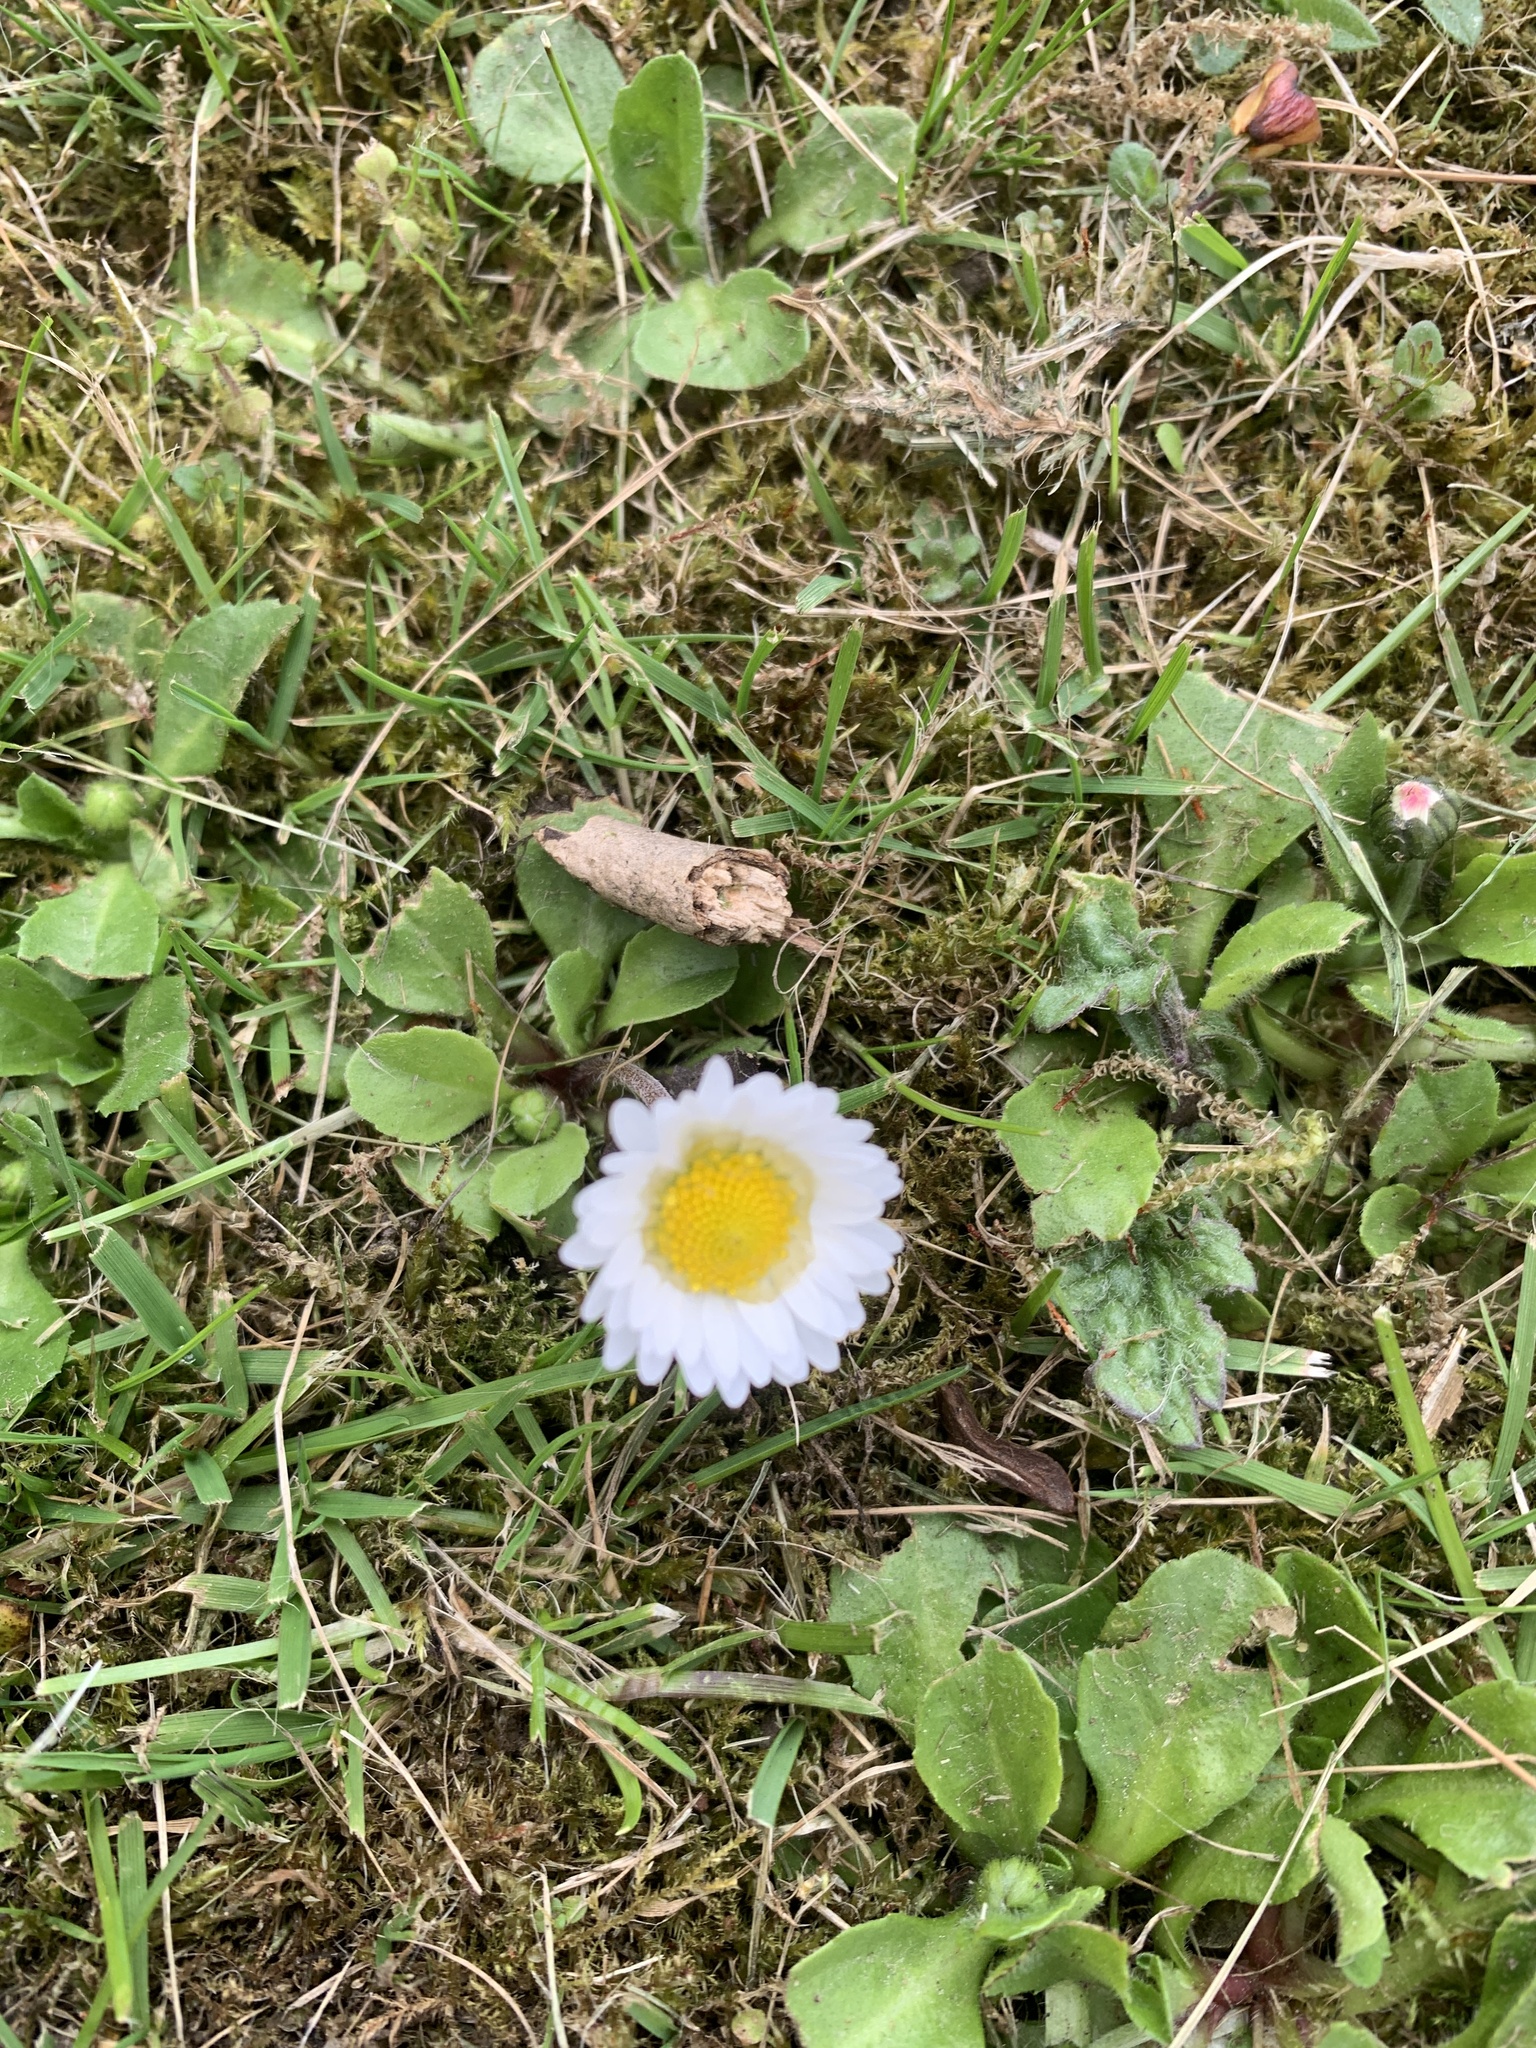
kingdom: Plantae
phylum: Tracheophyta
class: Magnoliopsida
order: Asterales
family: Asteraceae
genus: Bellis
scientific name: Bellis perennis
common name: Lawndaisy
